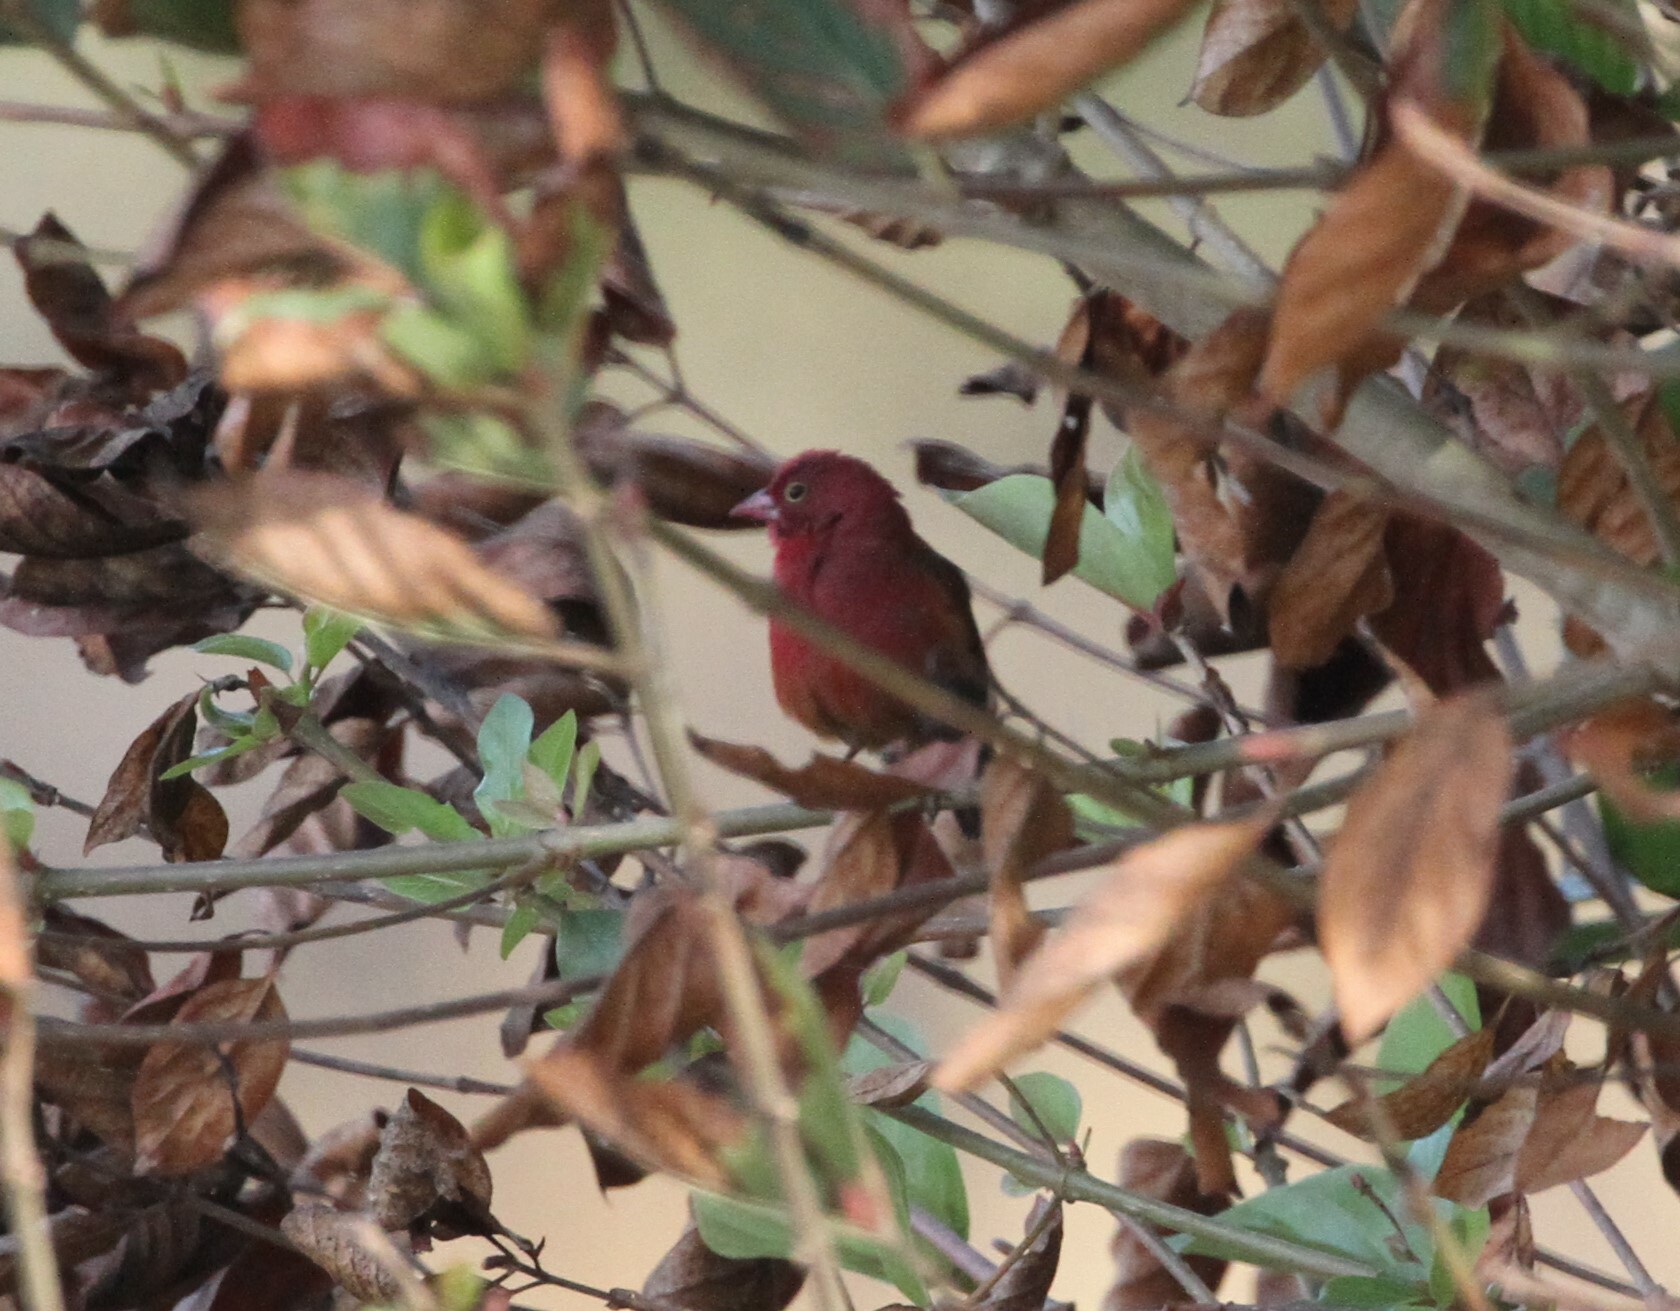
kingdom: Animalia
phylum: Chordata
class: Aves
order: Passeriformes
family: Estrildidae
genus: Lagonosticta
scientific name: Lagonosticta senegala
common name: Red-billed firefinch
